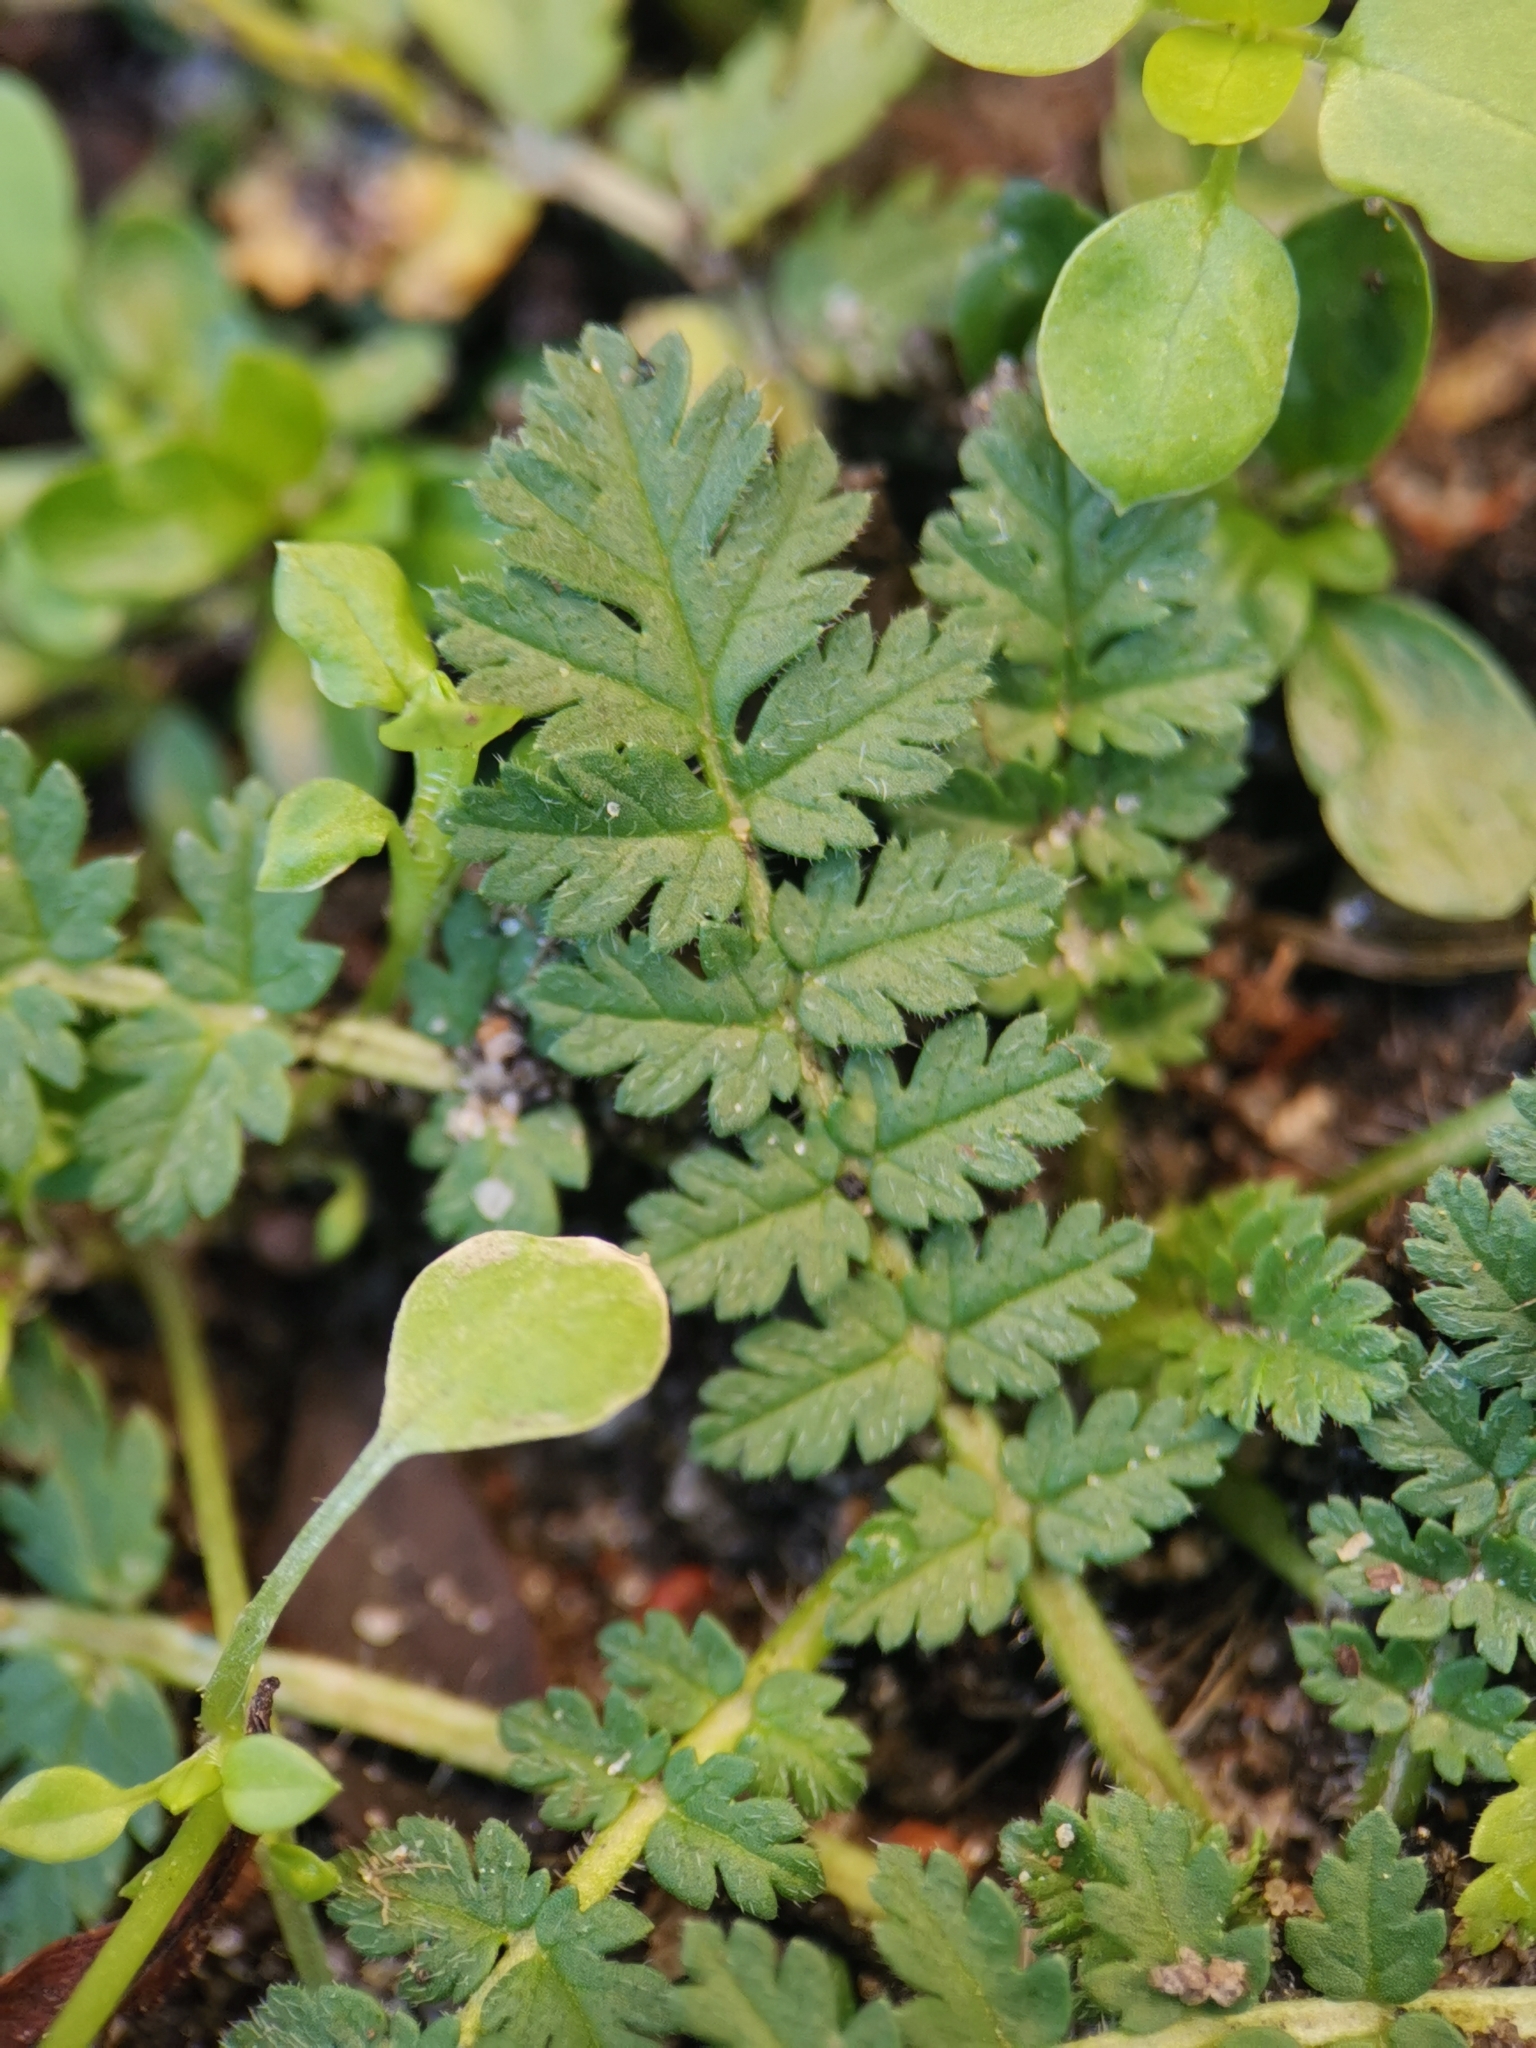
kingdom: Plantae
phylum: Tracheophyta
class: Magnoliopsida
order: Geraniales
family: Geraniaceae
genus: Erodium
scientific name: Erodium cicutarium
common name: Common stork's-bill
